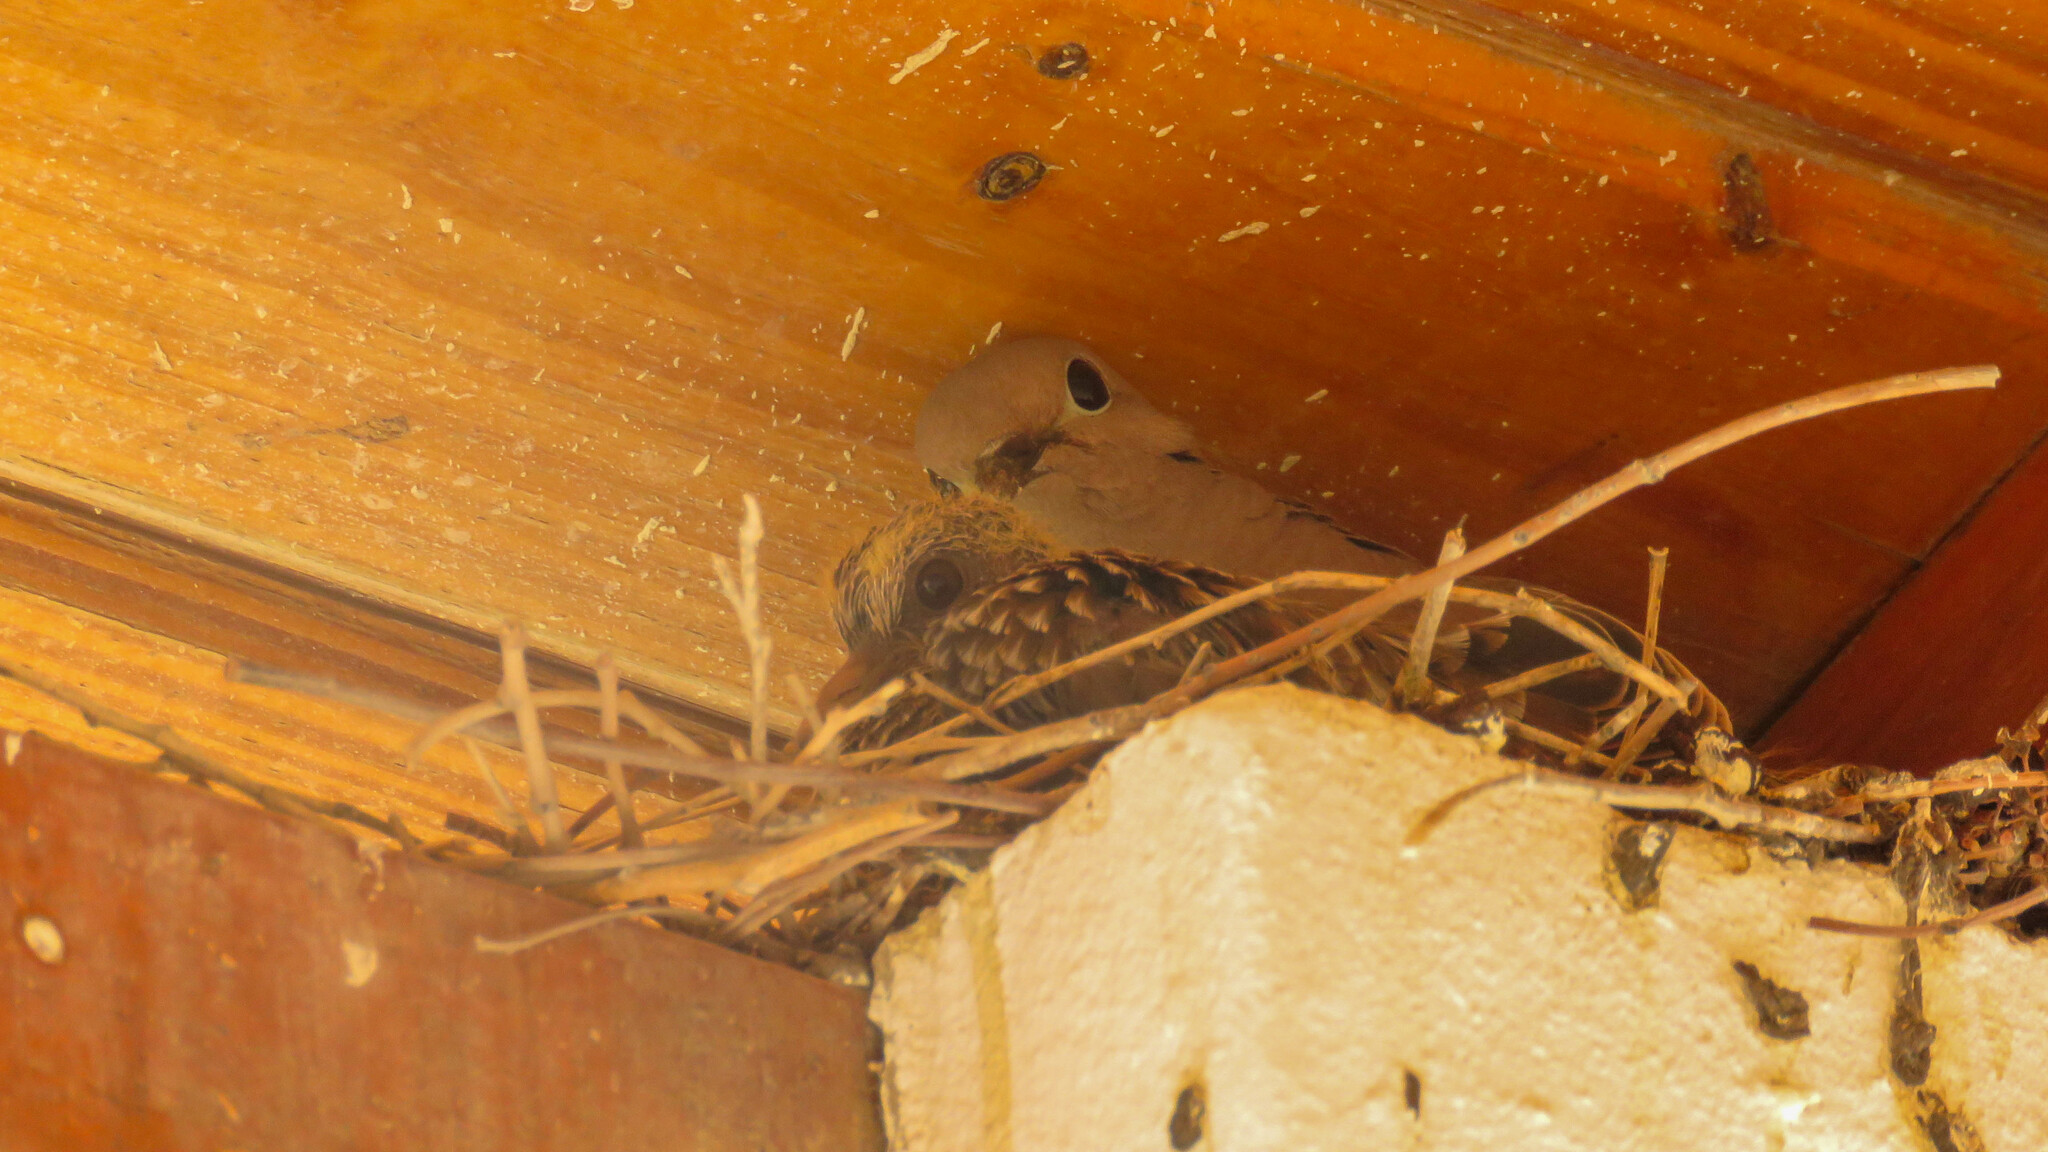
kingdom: Animalia
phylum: Chordata
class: Aves
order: Columbiformes
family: Columbidae
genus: Zenaida
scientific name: Zenaida auriculata
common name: Eared dove
